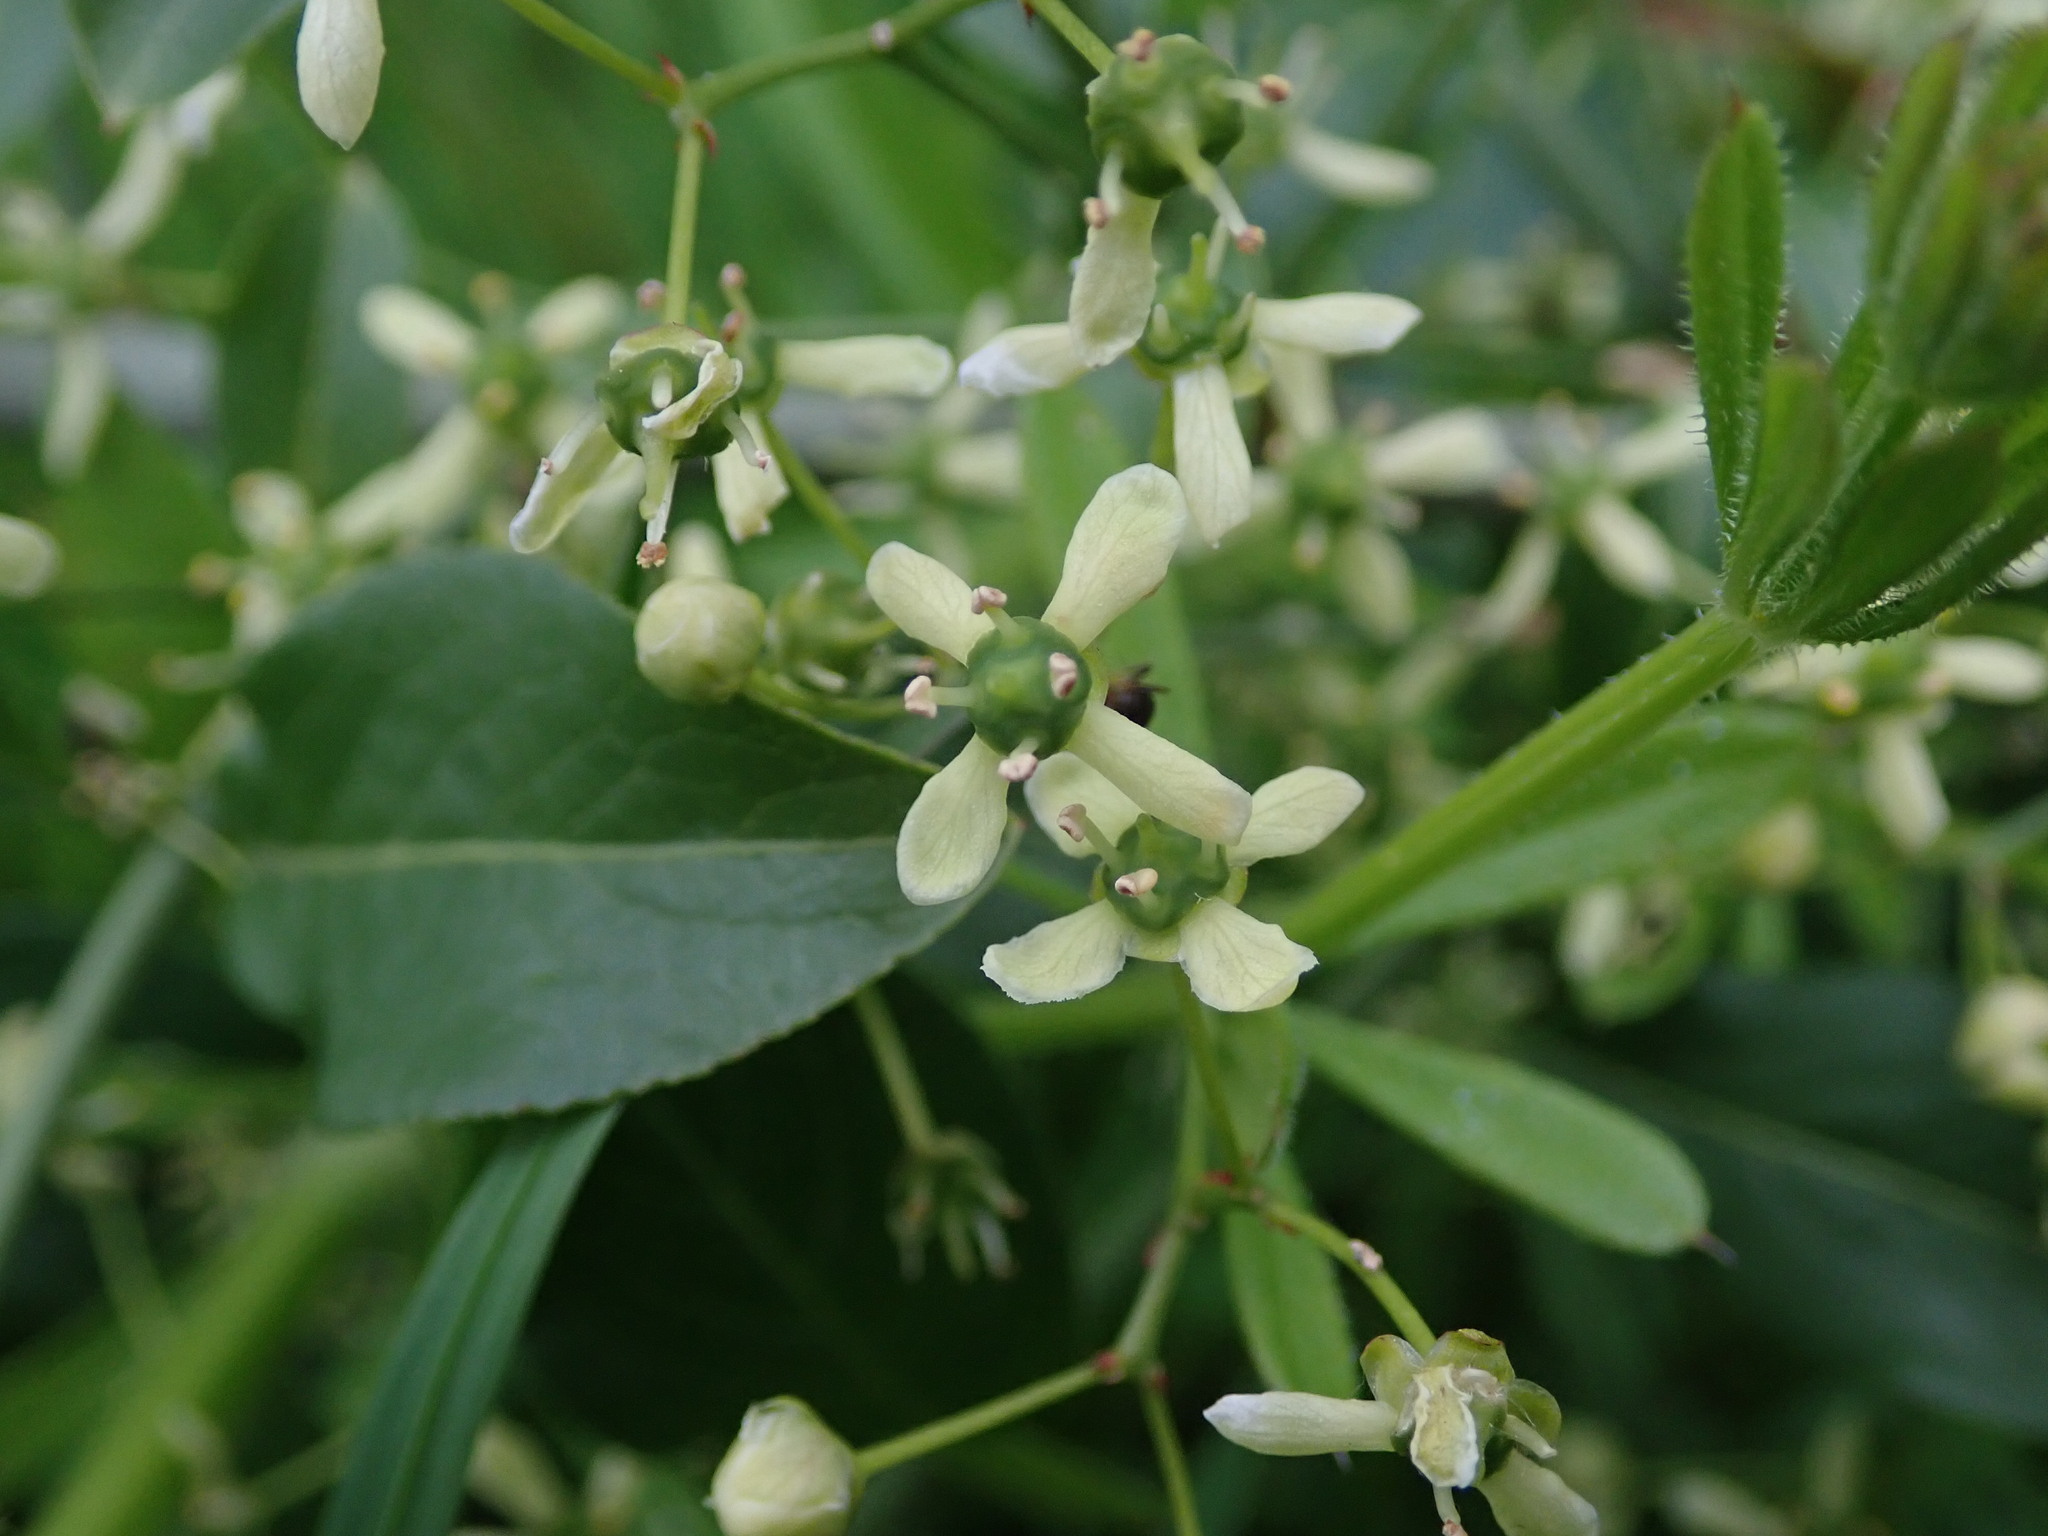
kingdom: Plantae
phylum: Tracheophyta
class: Magnoliopsida
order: Celastrales
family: Celastraceae
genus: Euonymus
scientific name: Euonymus europaeus
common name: Spindle
